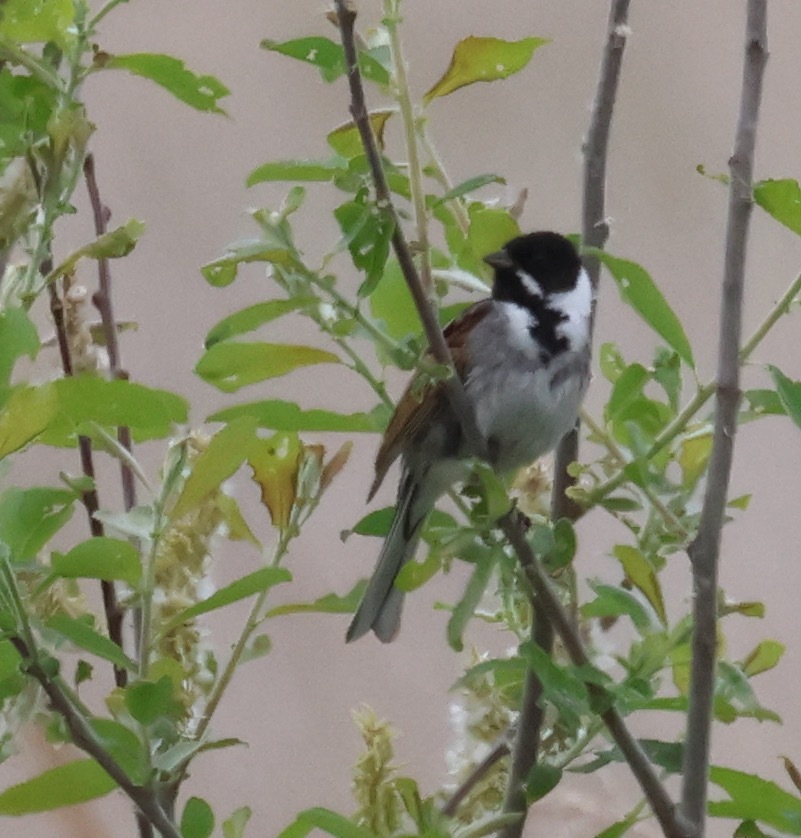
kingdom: Animalia
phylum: Chordata
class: Aves
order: Passeriformes
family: Emberizidae
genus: Emberiza
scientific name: Emberiza schoeniclus
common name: Reed bunting
